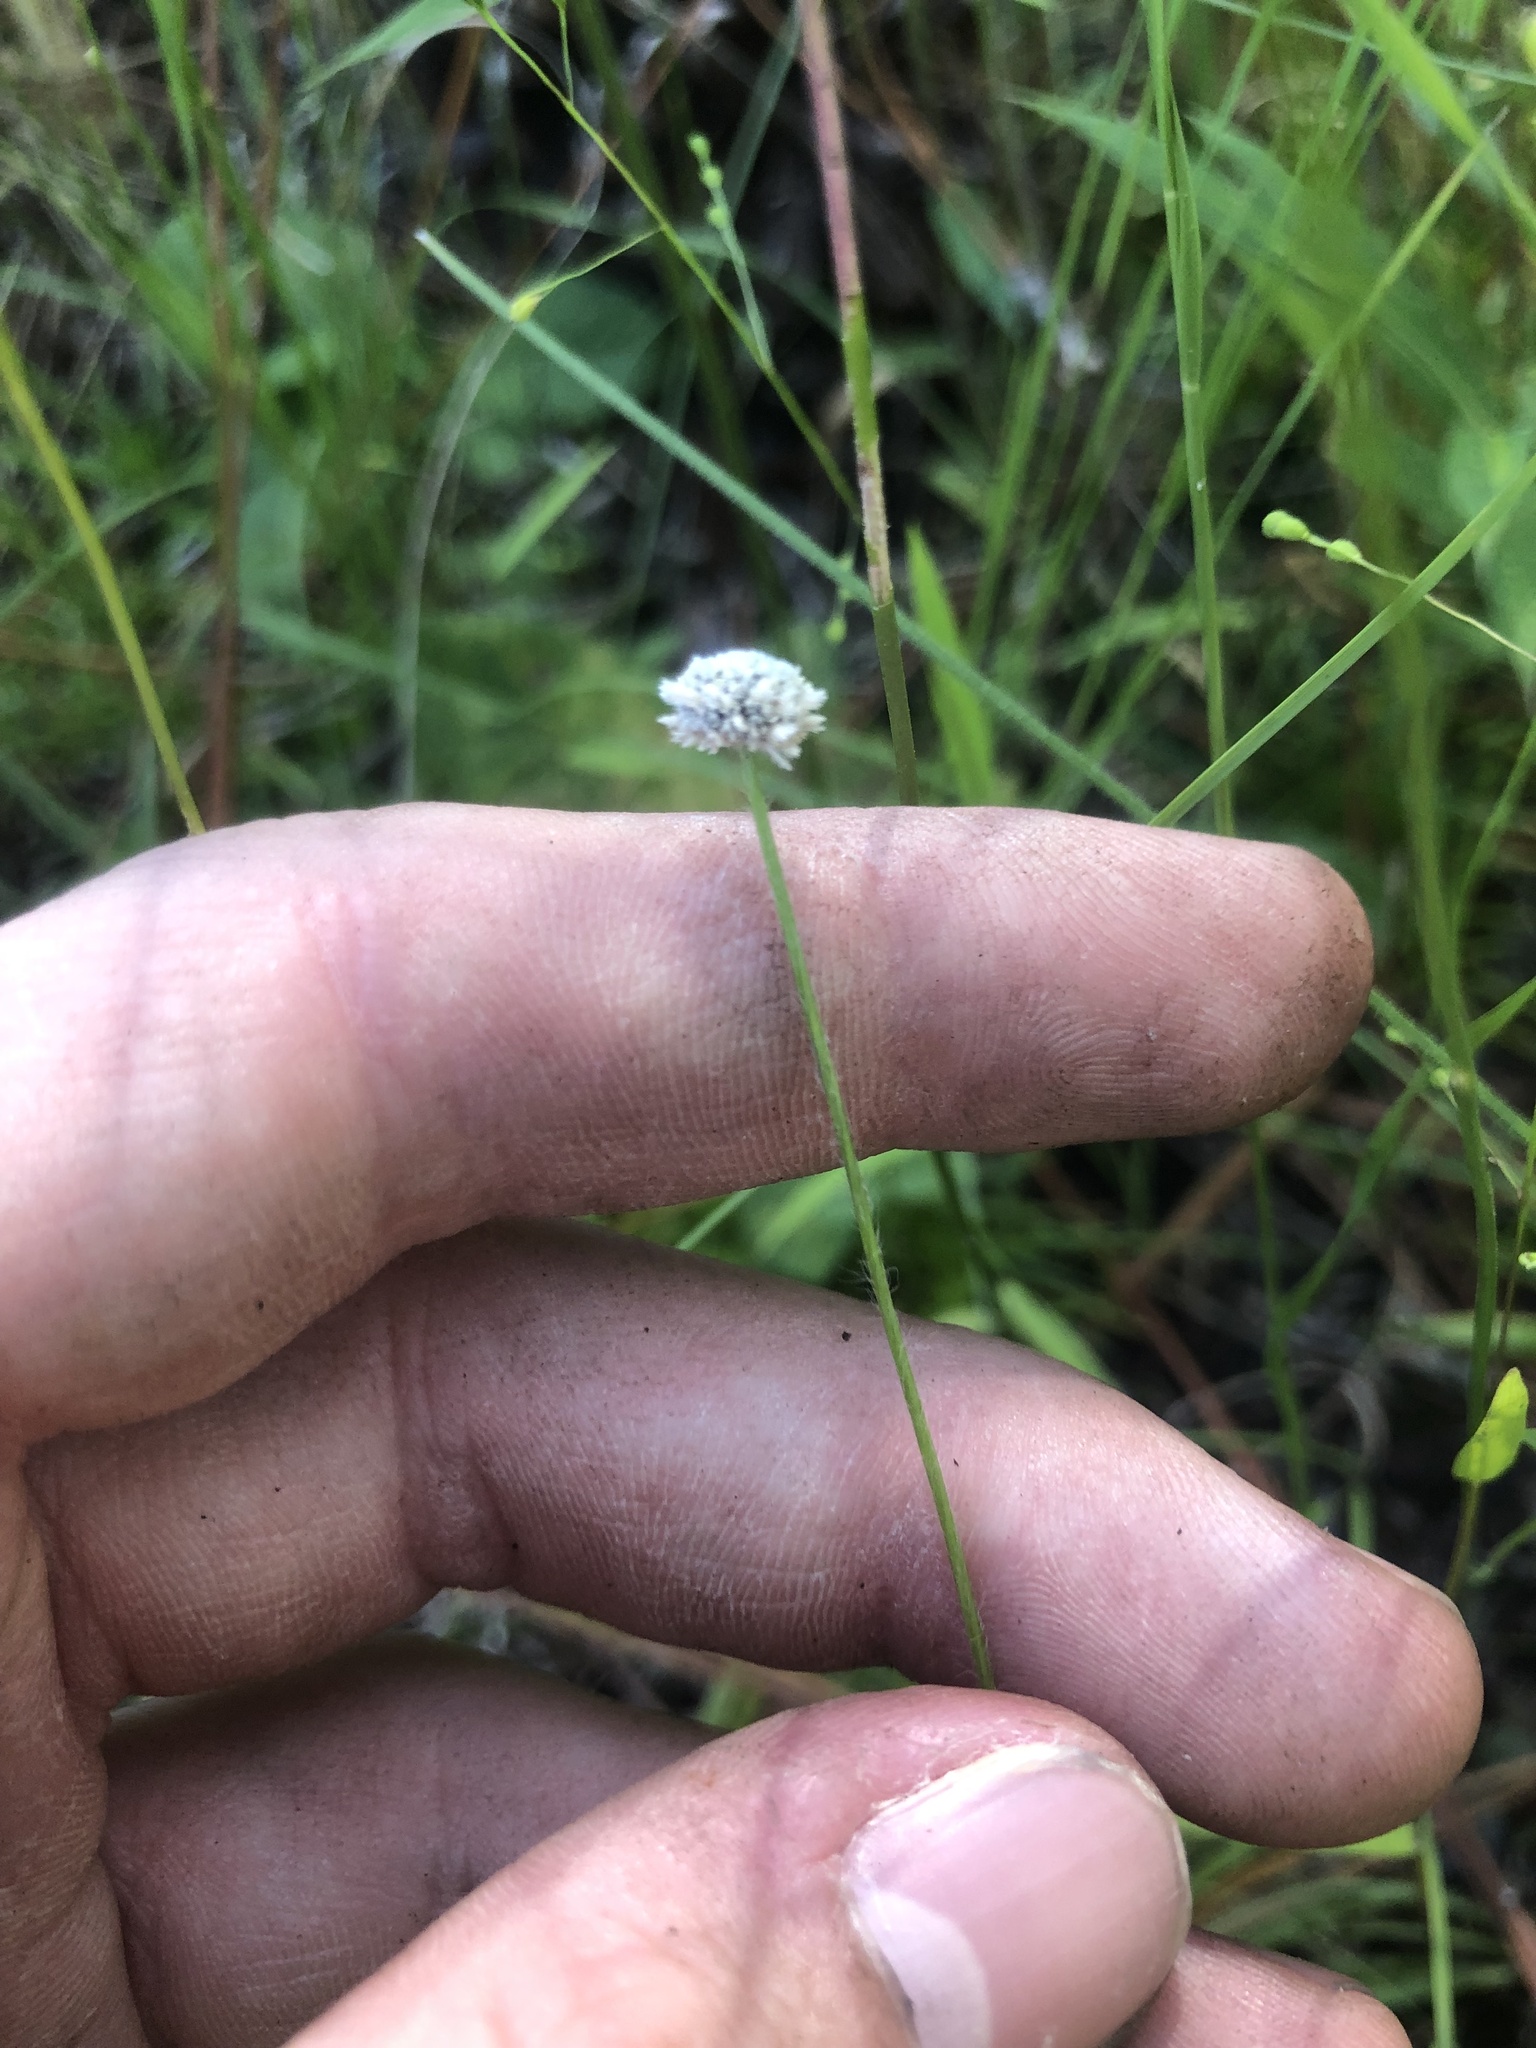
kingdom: Plantae
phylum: Tracheophyta
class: Liliopsida
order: Poales
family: Eriocaulaceae
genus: Paepalanthus
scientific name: Paepalanthus anceps
